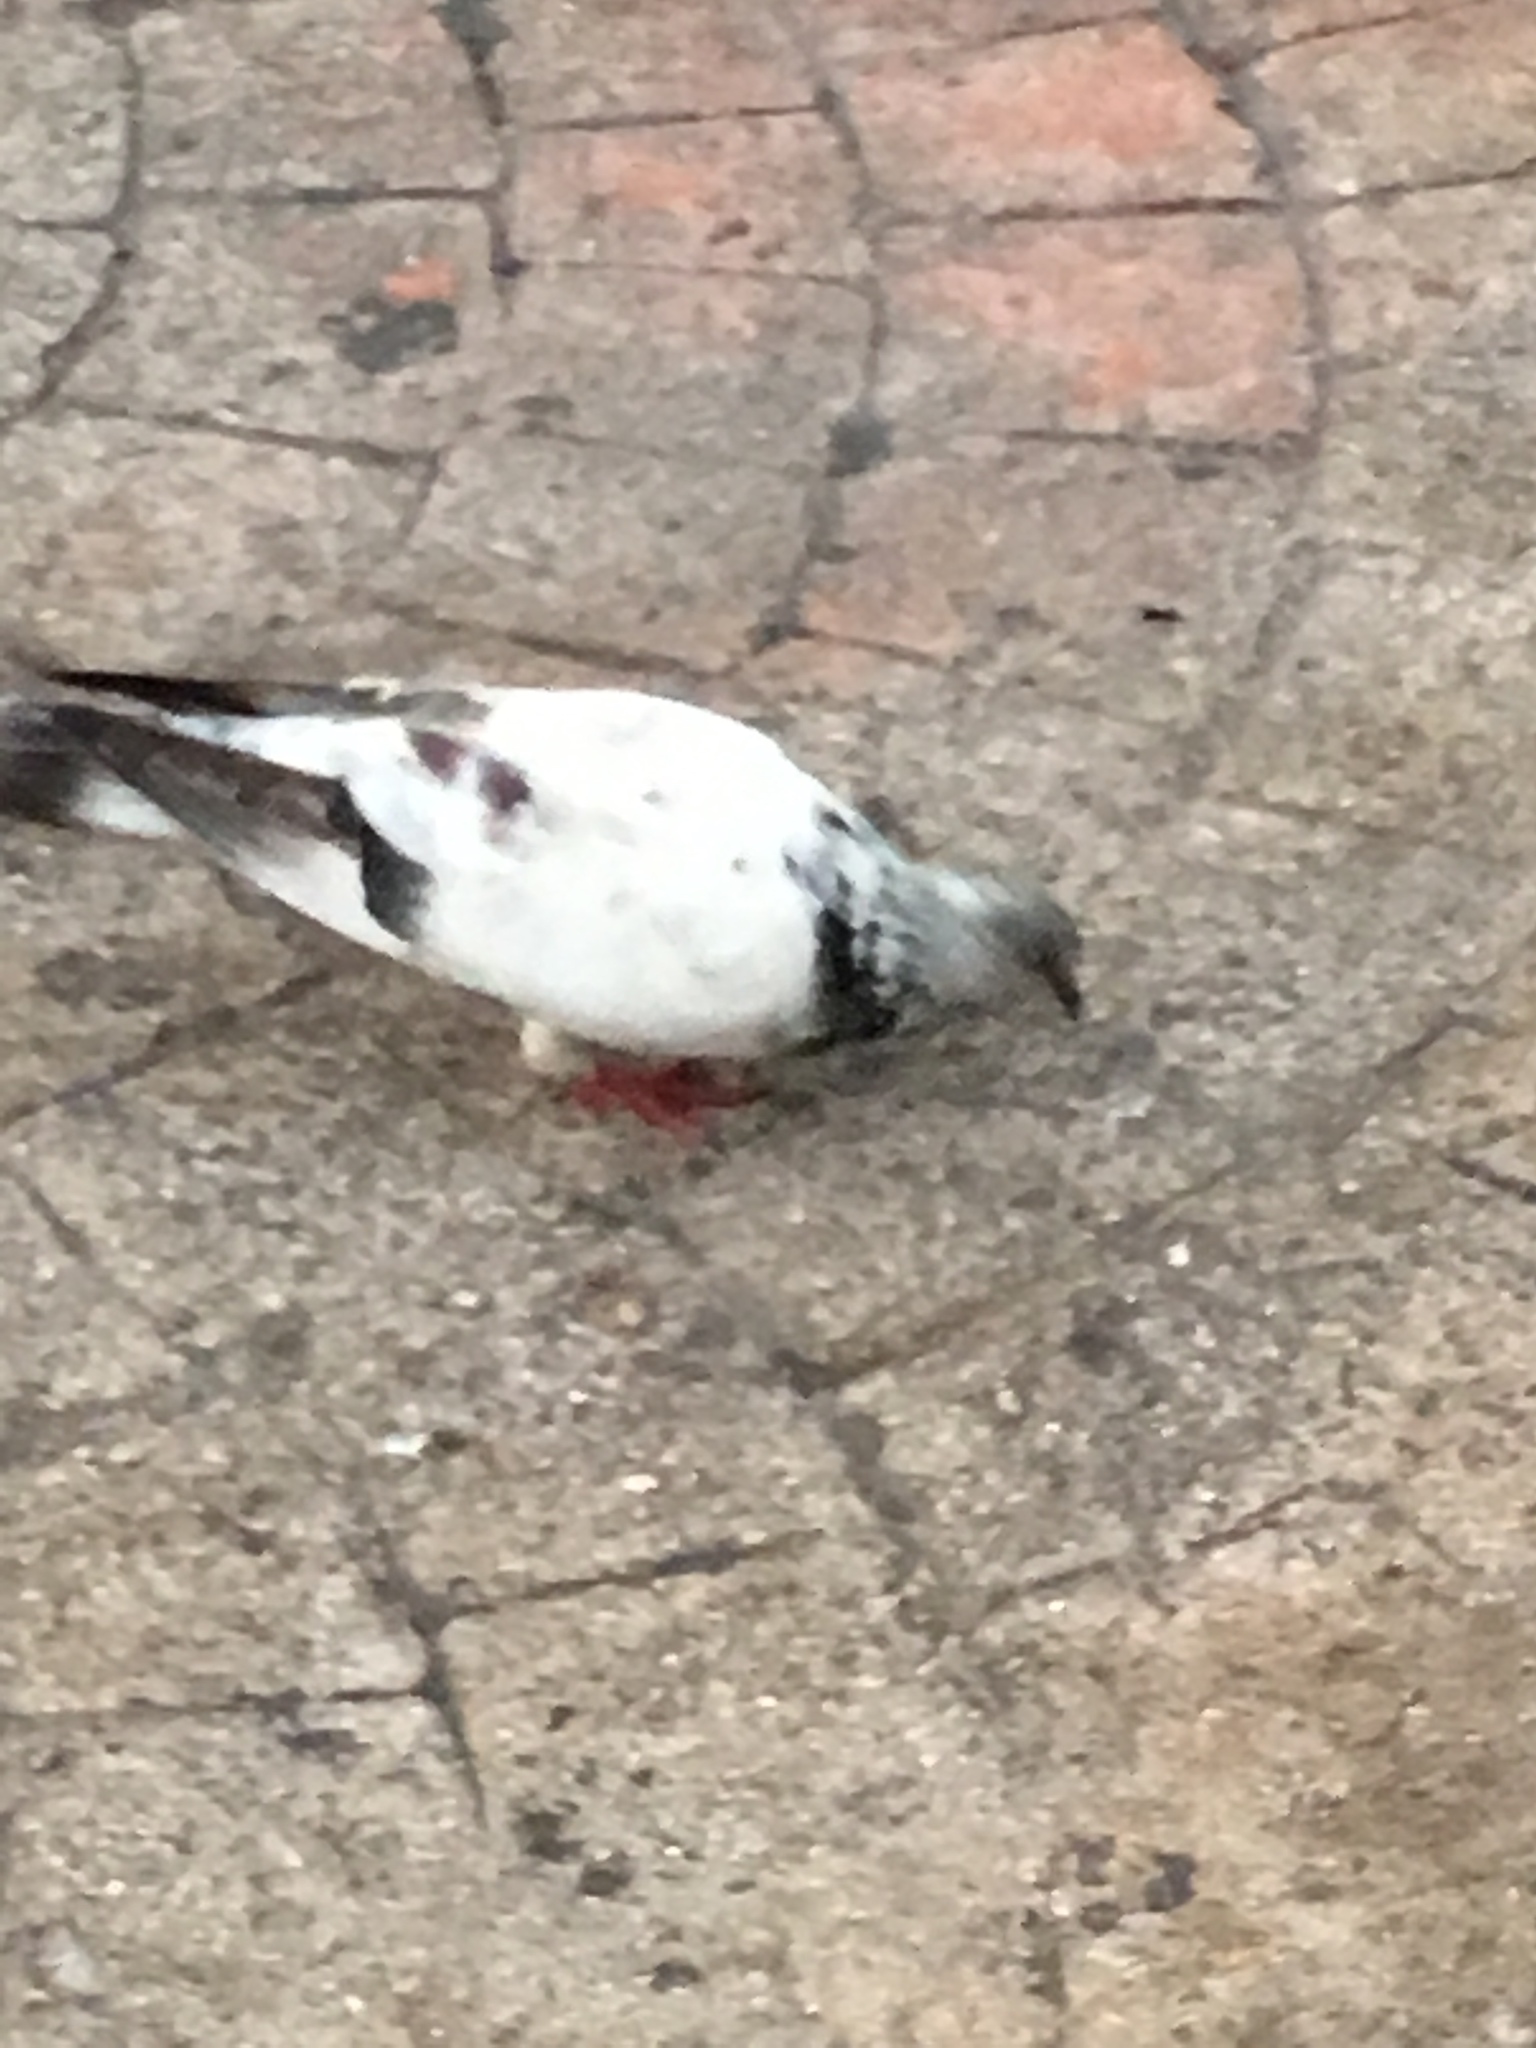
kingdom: Animalia
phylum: Chordata
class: Aves
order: Columbiformes
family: Columbidae
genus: Columba
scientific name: Columba livia
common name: Rock pigeon
